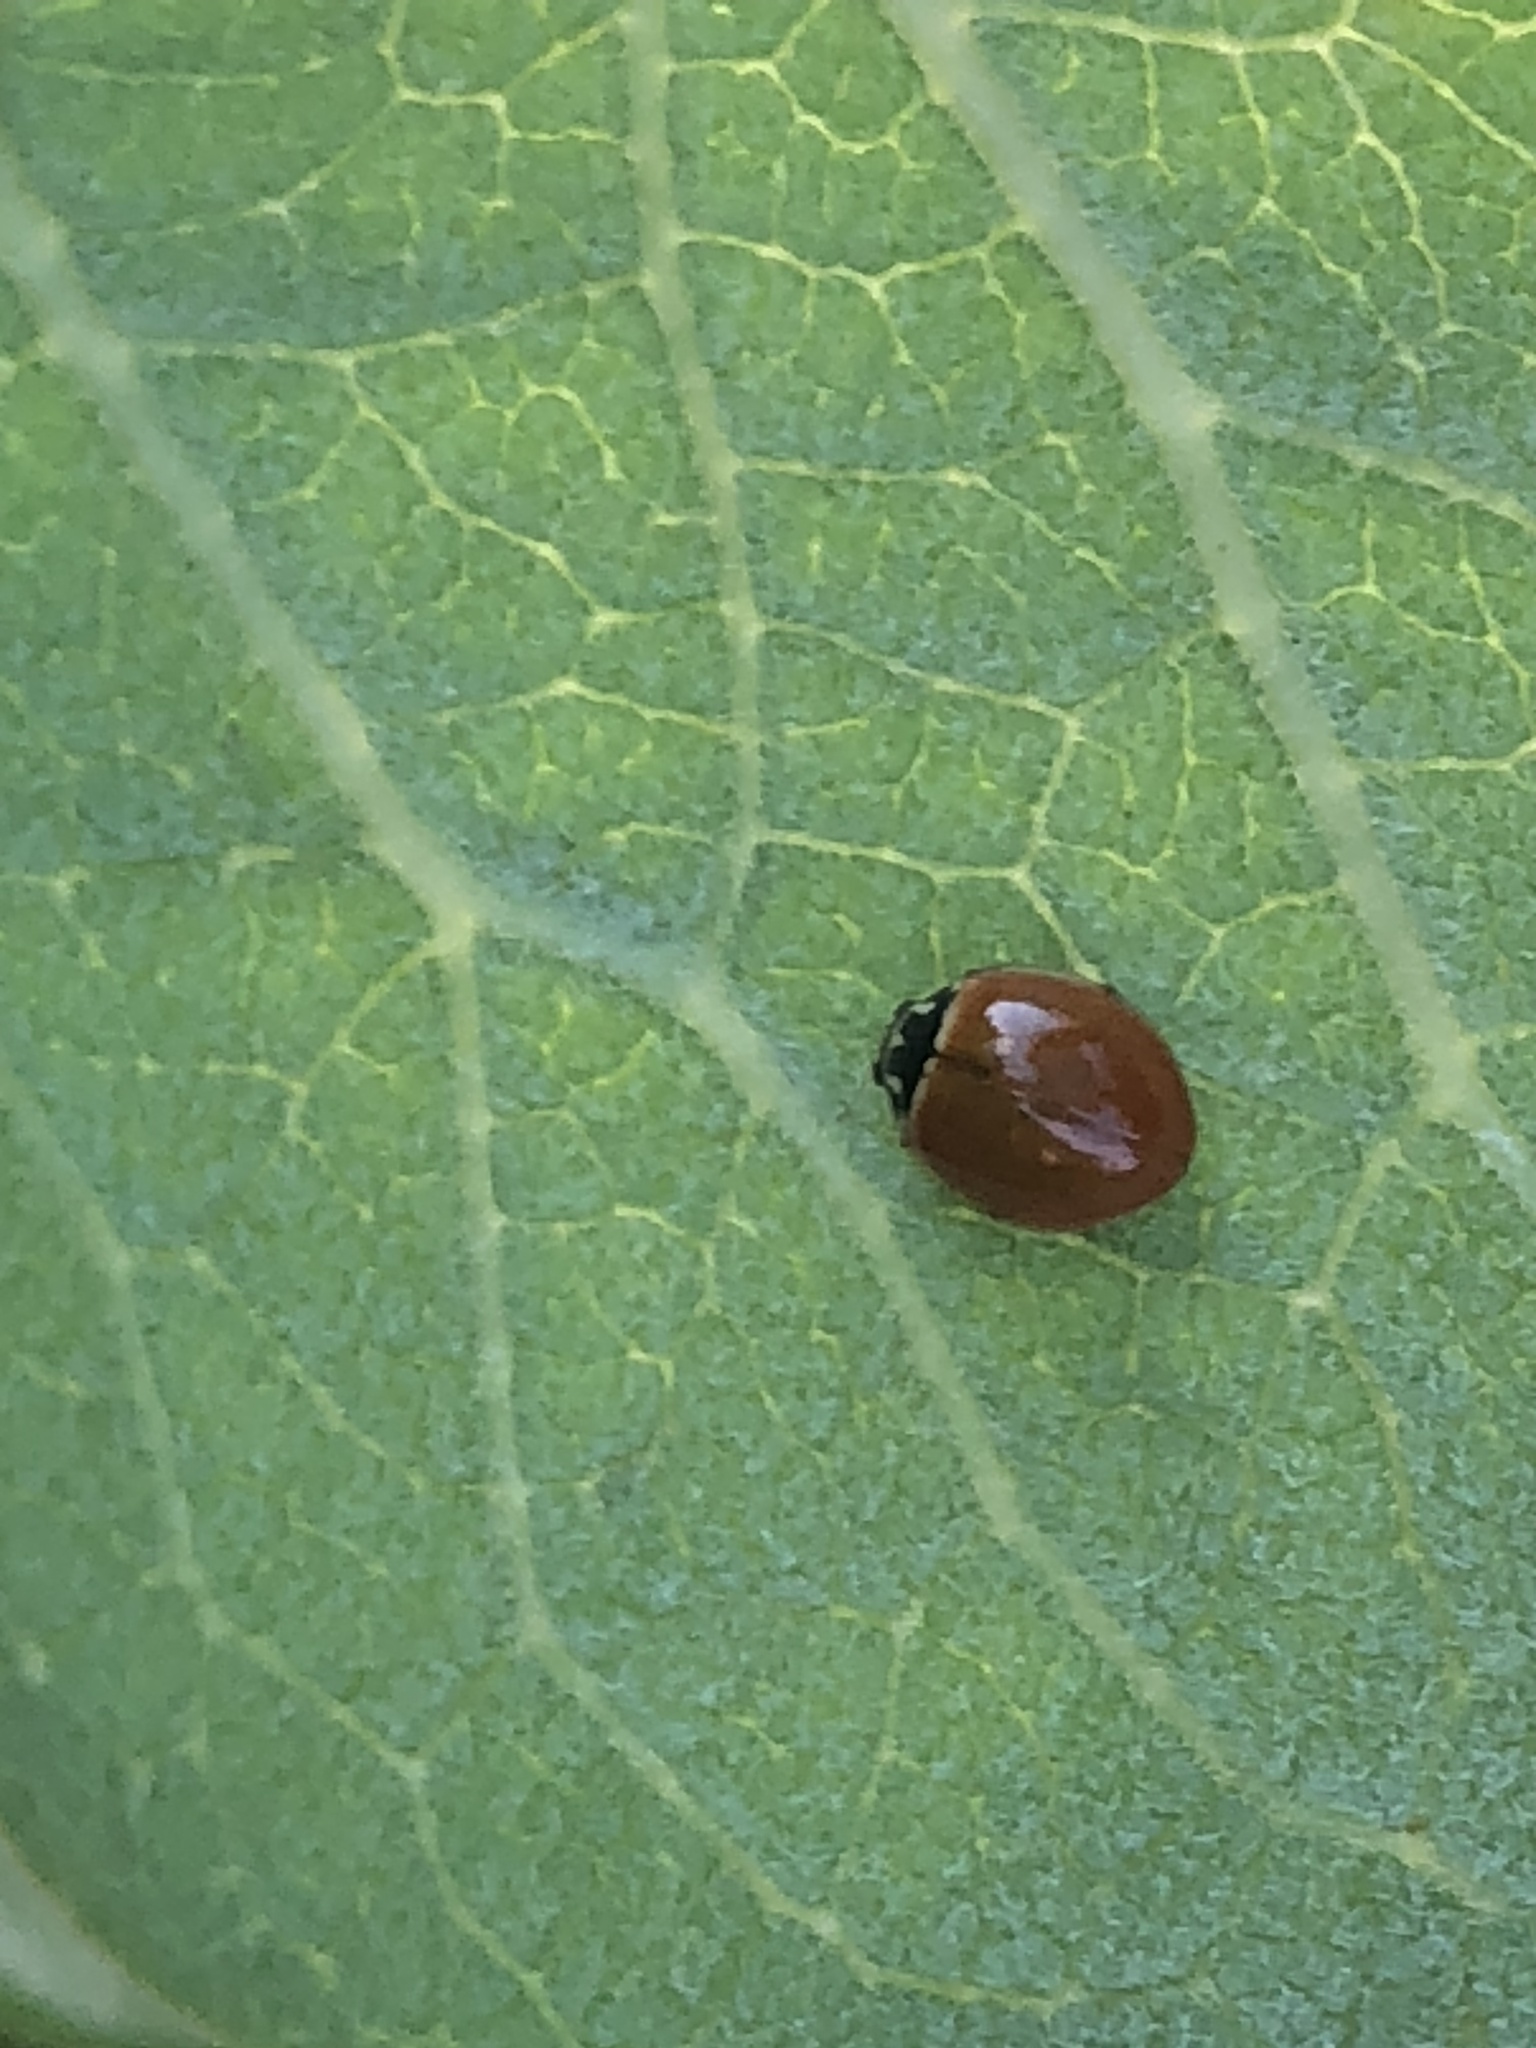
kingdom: Animalia
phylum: Arthropoda
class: Insecta
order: Coleoptera
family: Coccinellidae
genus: Cycloneda
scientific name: Cycloneda munda
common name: Polished lady beetle
